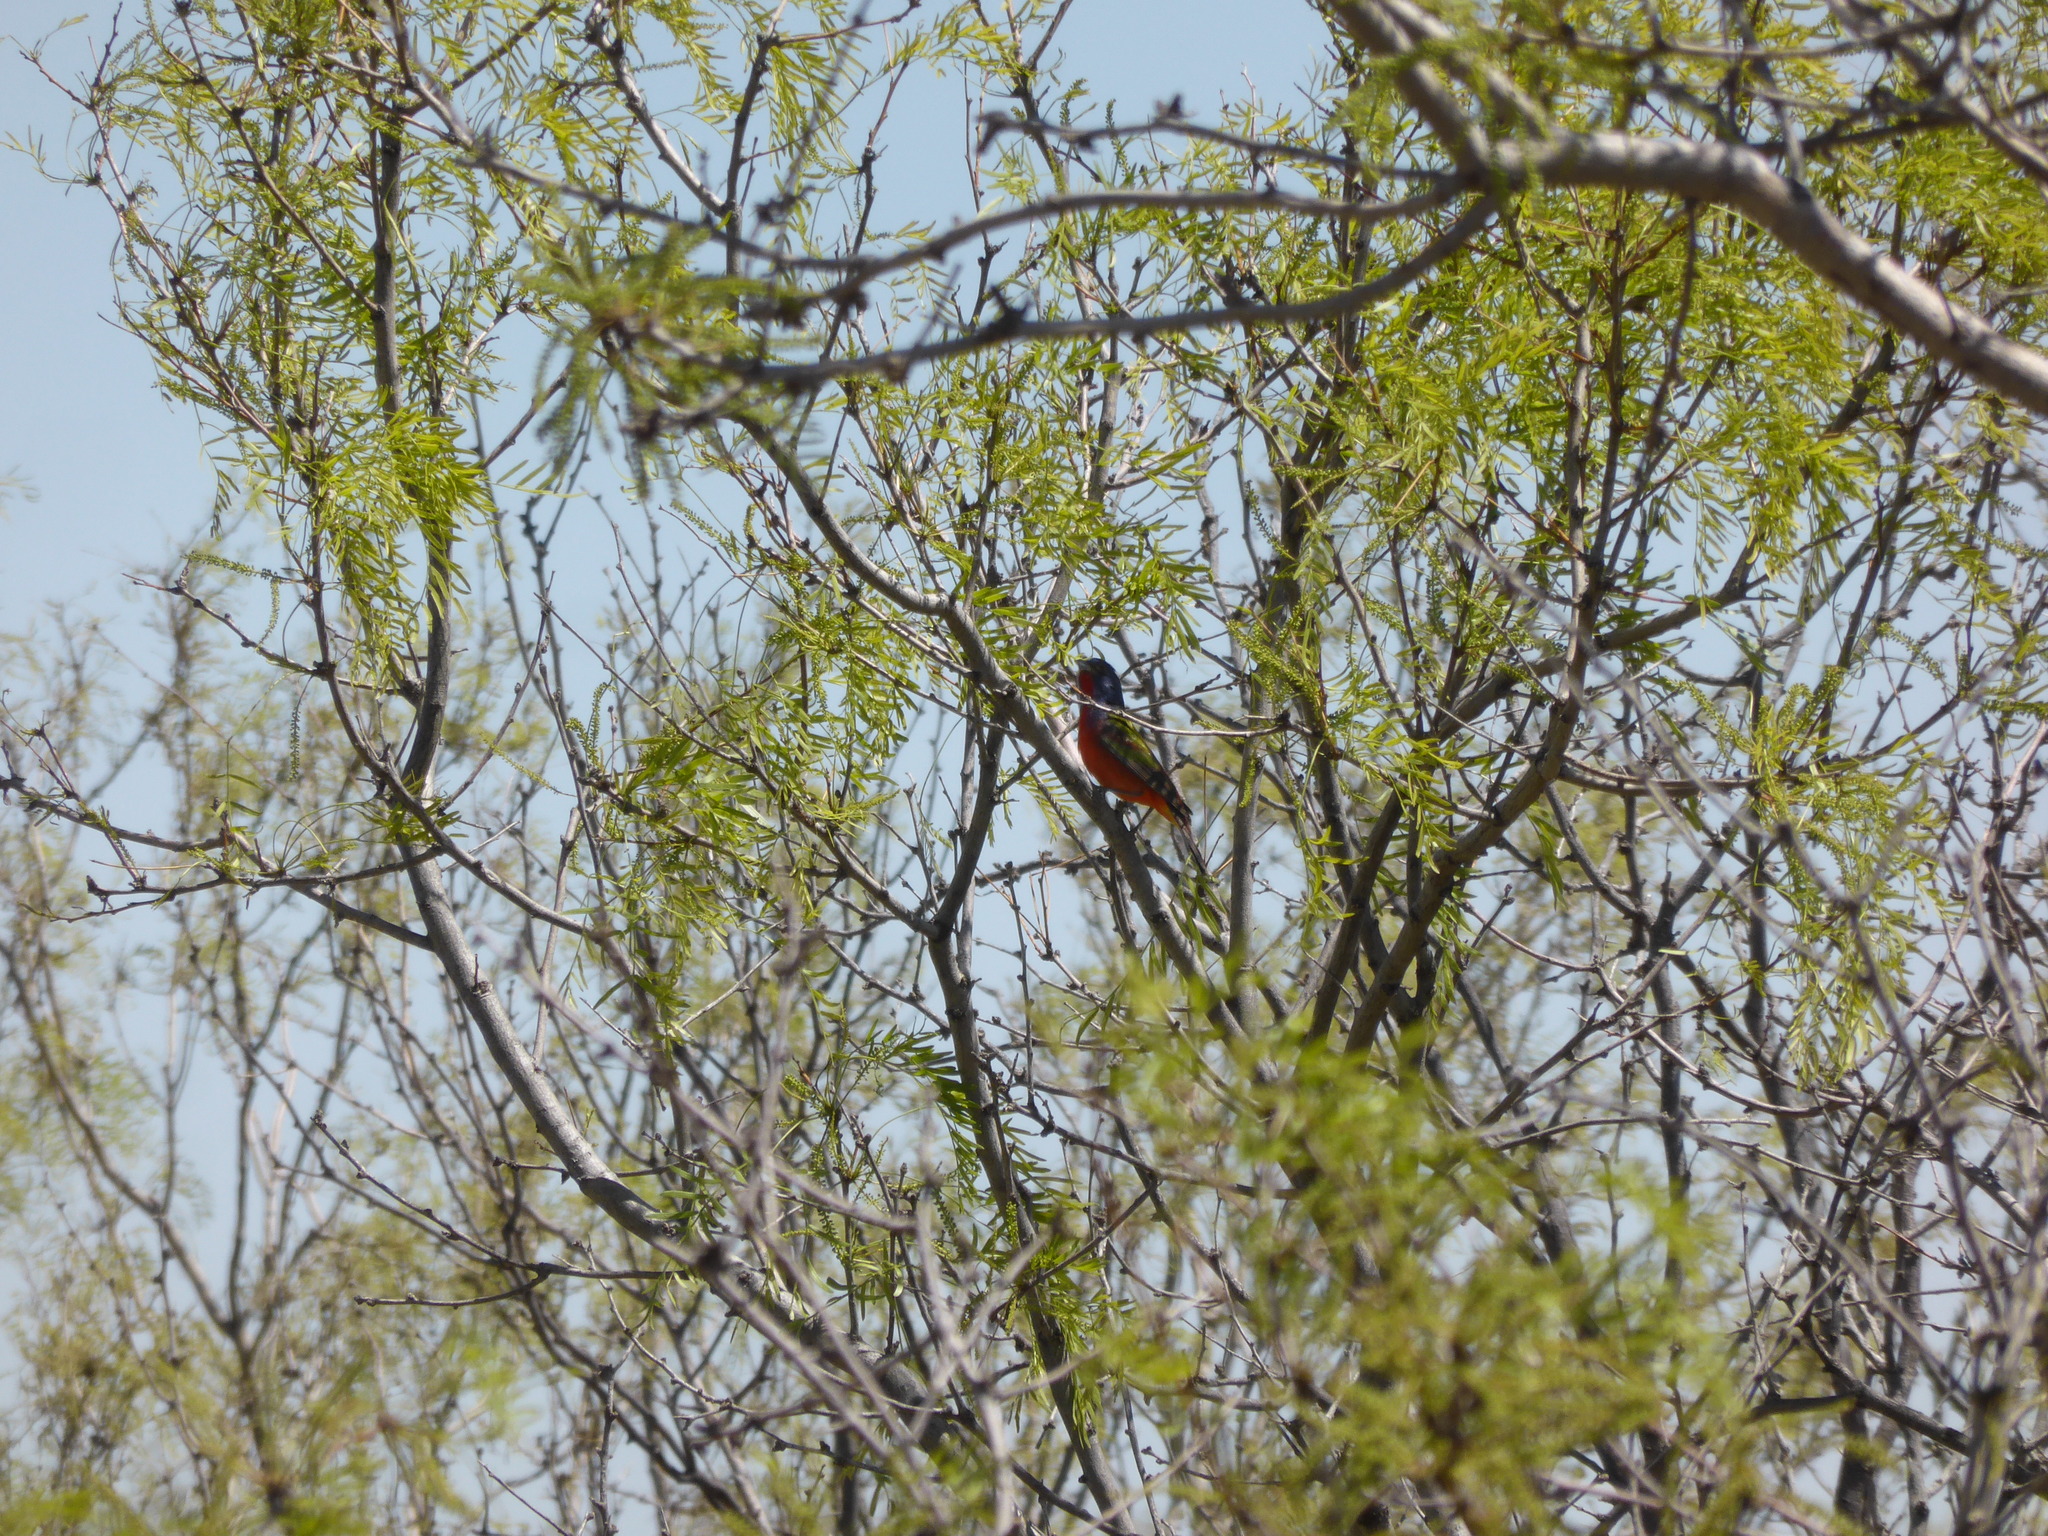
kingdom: Animalia
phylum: Chordata
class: Aves
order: Passeriformes
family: Cardinalidae
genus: Passerina
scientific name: Passerina ciris
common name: Painted bunting
